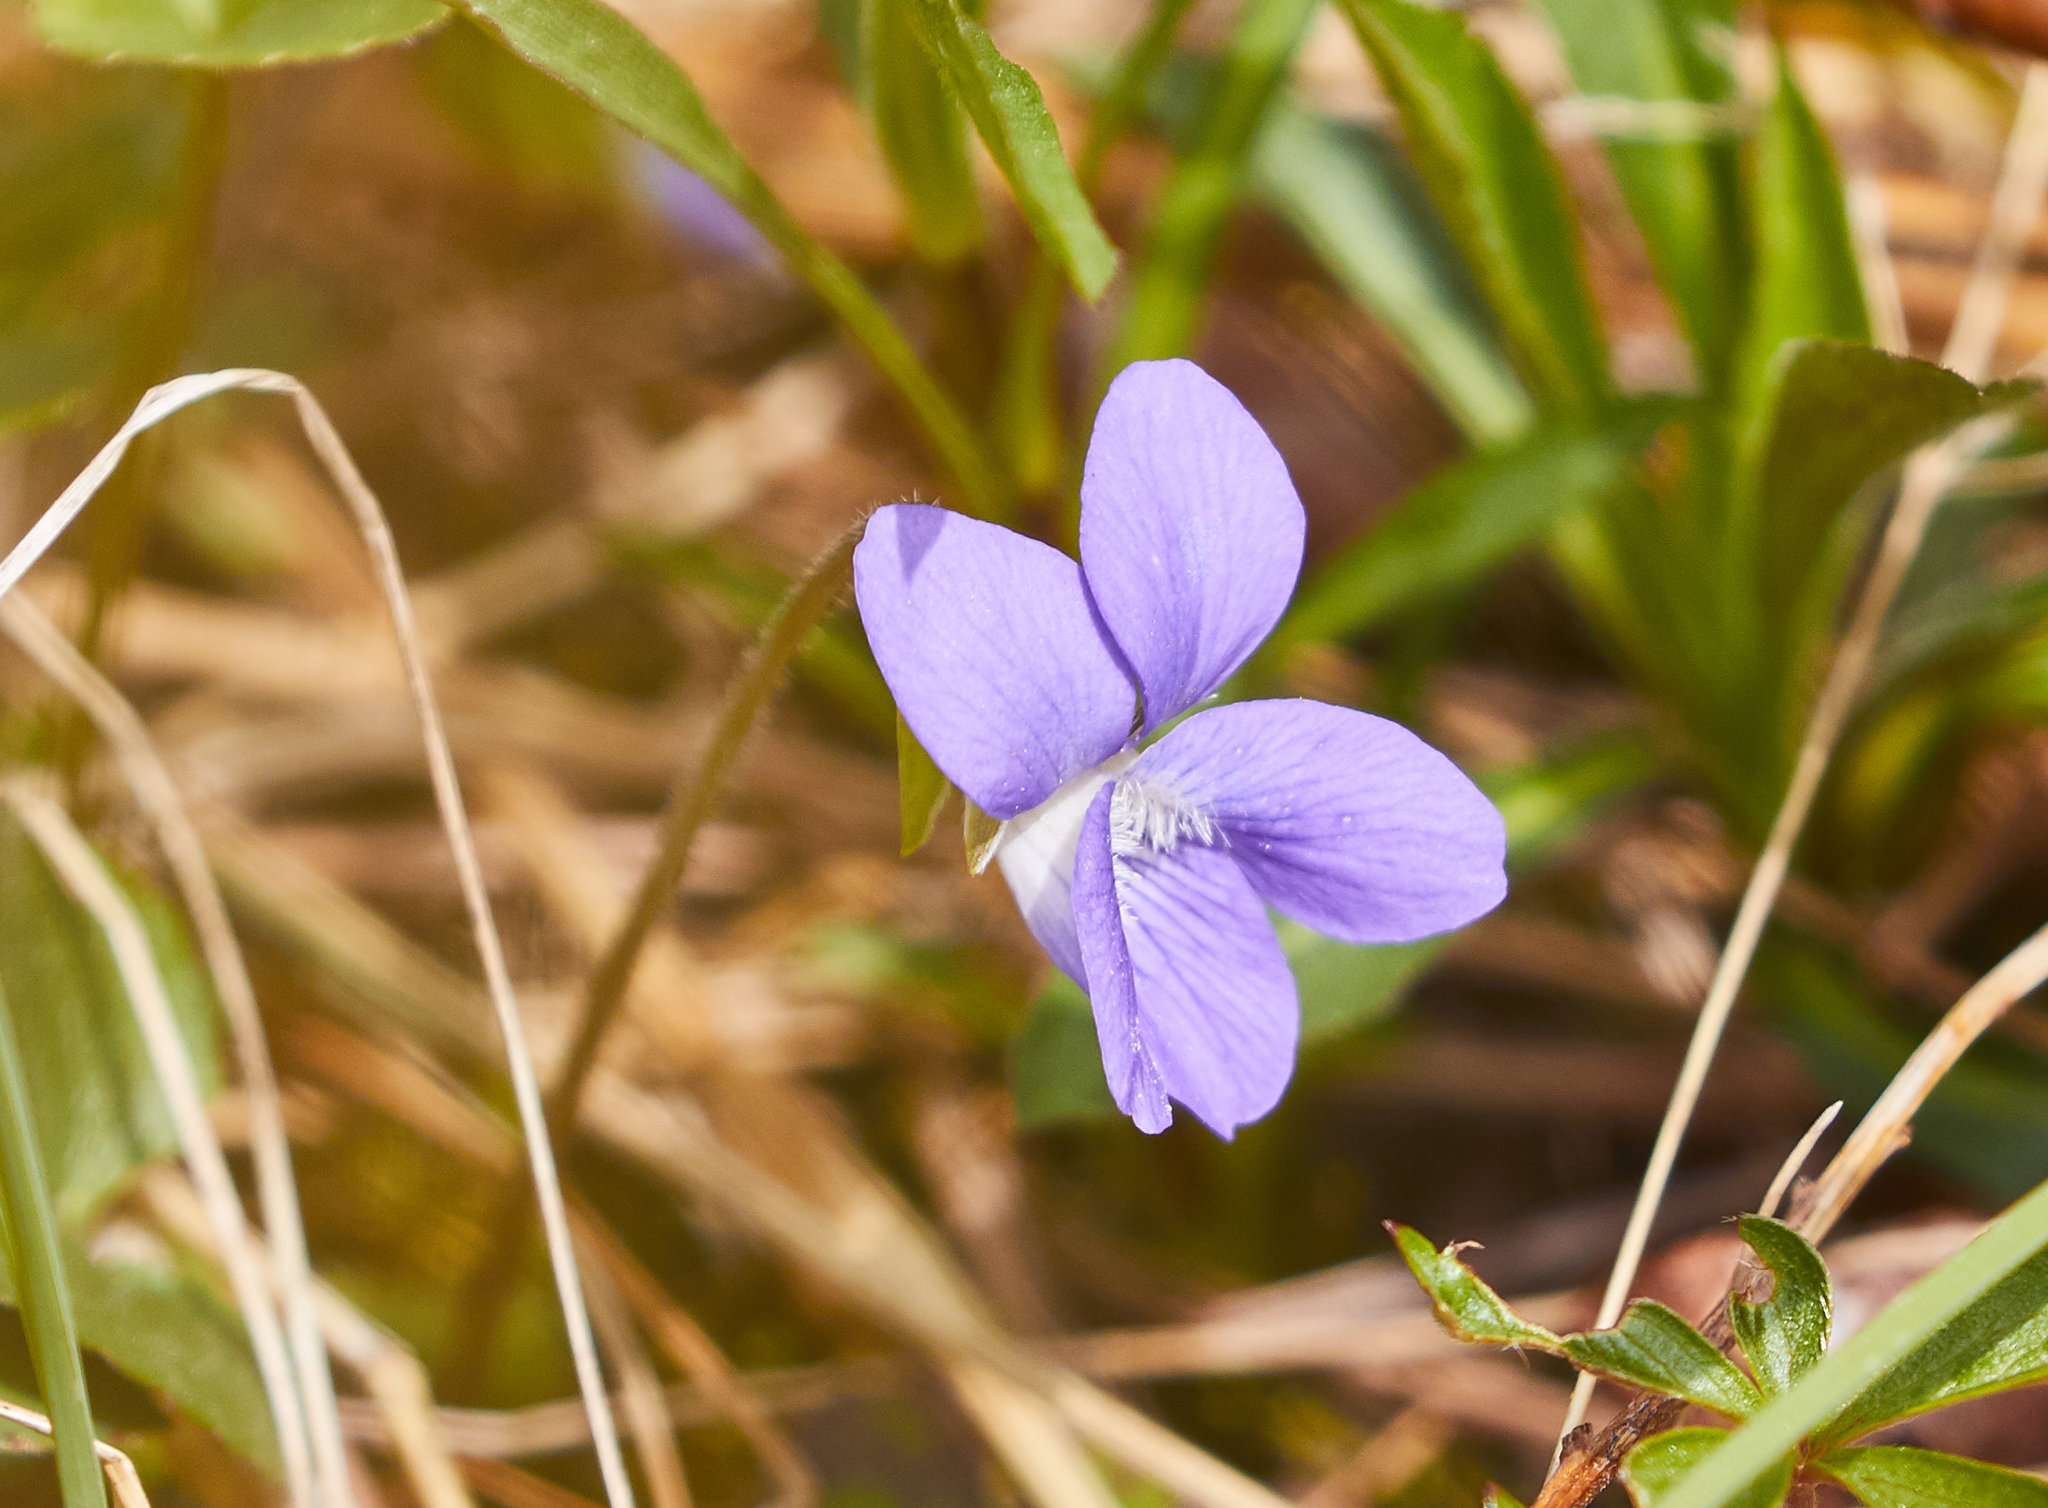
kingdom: Plantae
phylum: Tracheophyta
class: Magnoliopsida
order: Malpighiales
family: Violaceae
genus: Viola
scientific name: Viola sororia
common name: Dooryard violet
